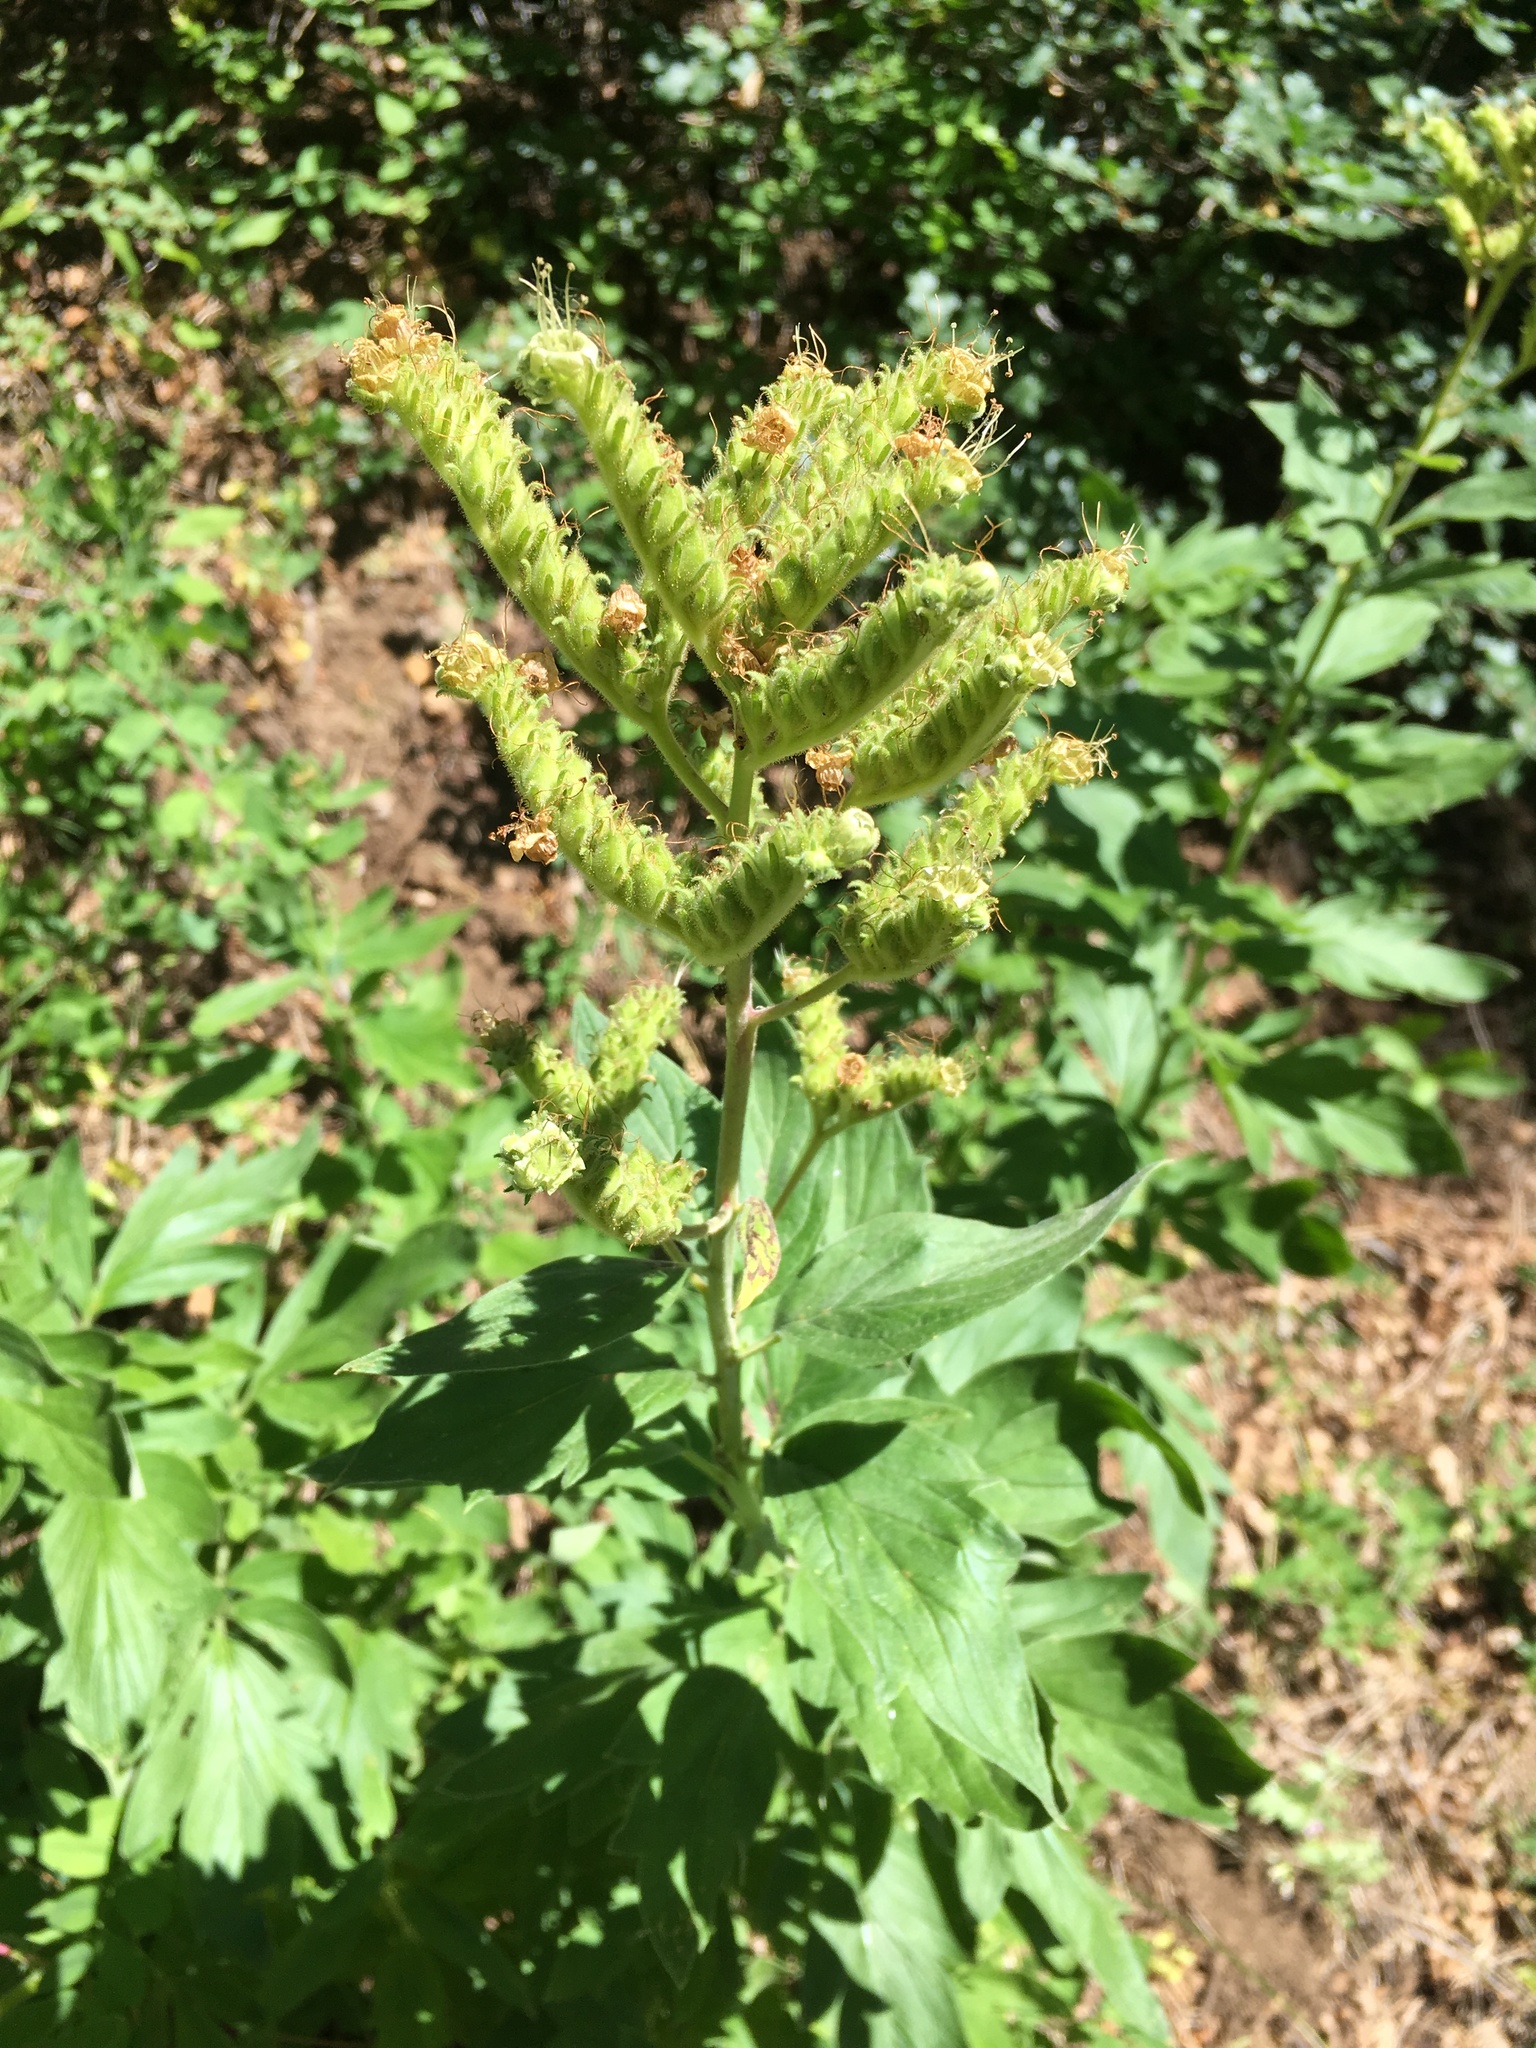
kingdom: Plantae
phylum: Tracheophyta
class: Magnoliopsida
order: Boraginales
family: Hydrophyllaceae
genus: Phacelia
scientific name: Phacelia procera
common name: Tall phacelia
